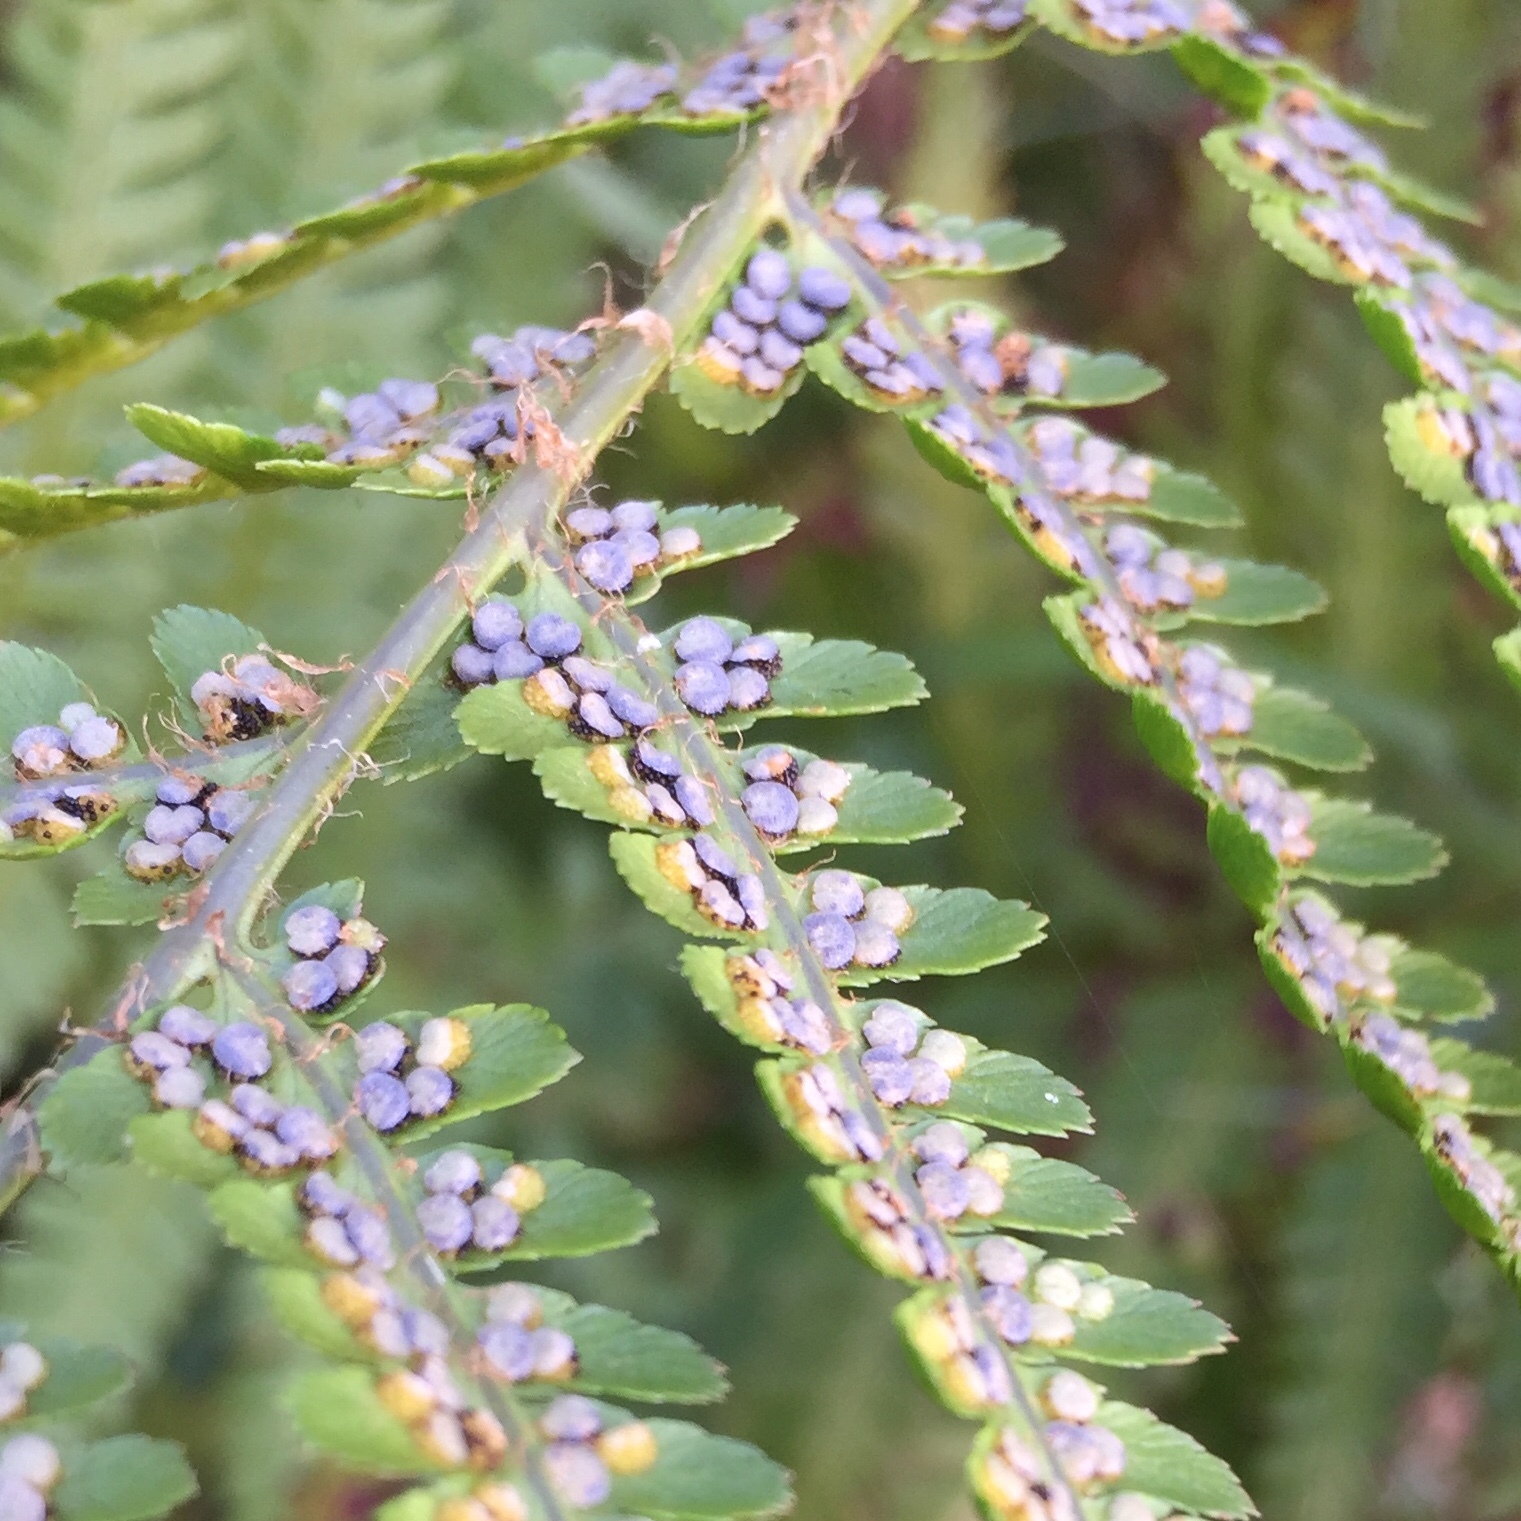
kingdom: Plantae
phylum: Tracheophyta
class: Polypodiopsida
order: Polypodiales
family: Dryopteridaceae
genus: Dryopteris
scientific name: Dryopteris filix-mas
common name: Male fern
